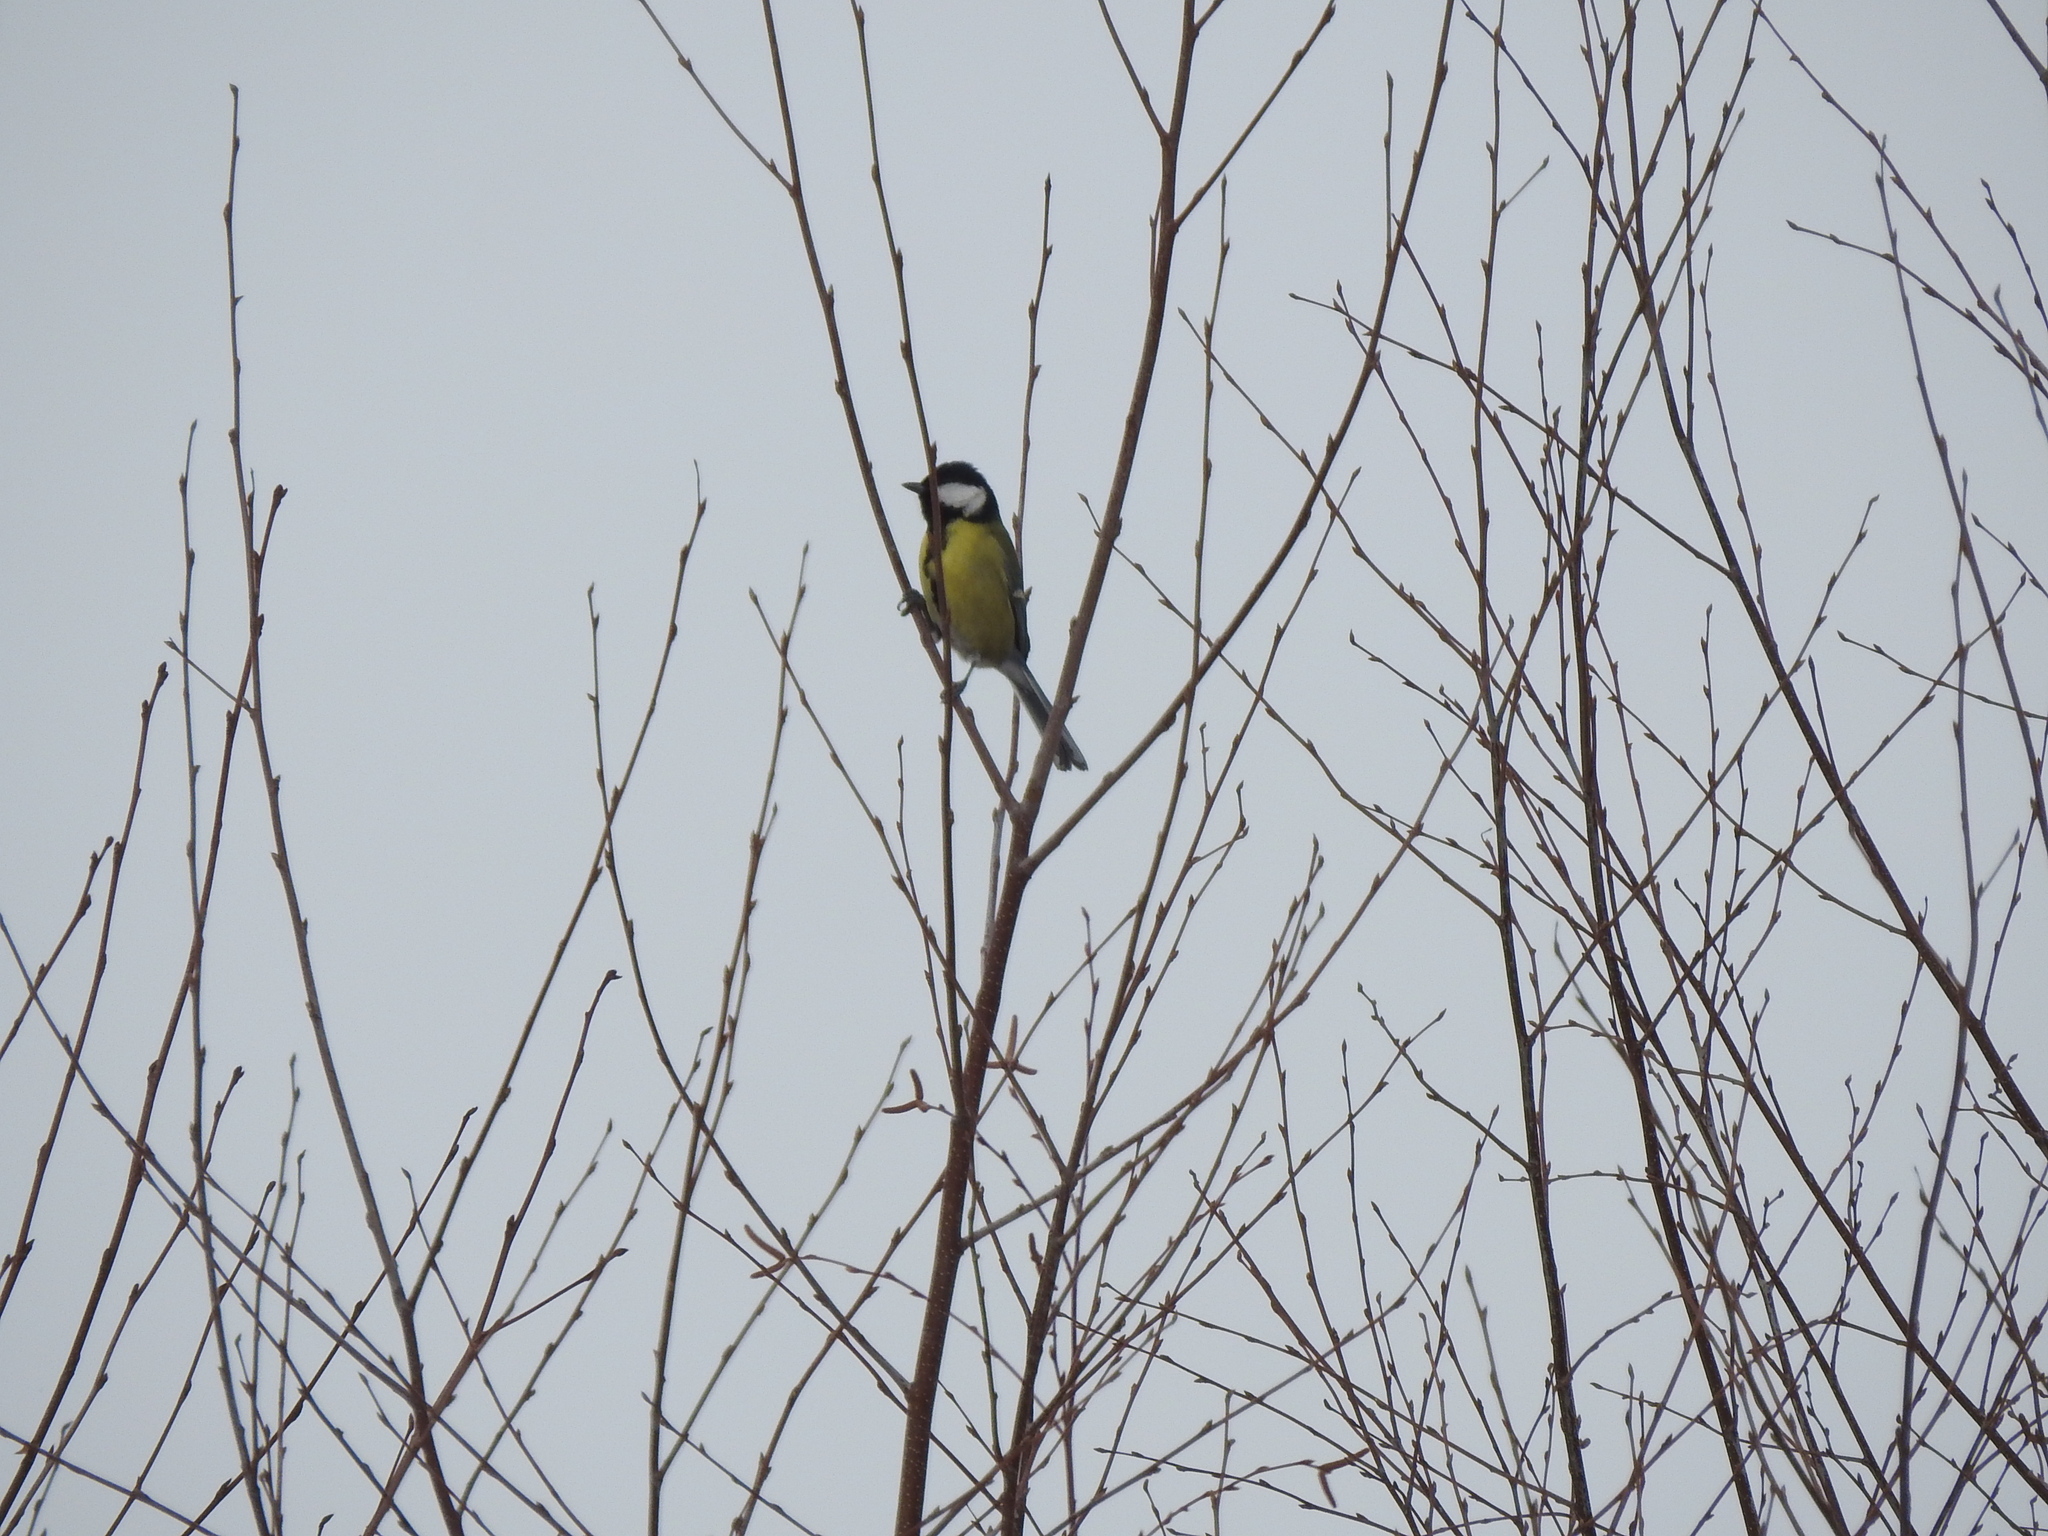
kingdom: Animalia
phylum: Chordata
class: Aves
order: Passeriformes
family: Paridae
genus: Parus
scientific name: Parus major
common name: Great tit
